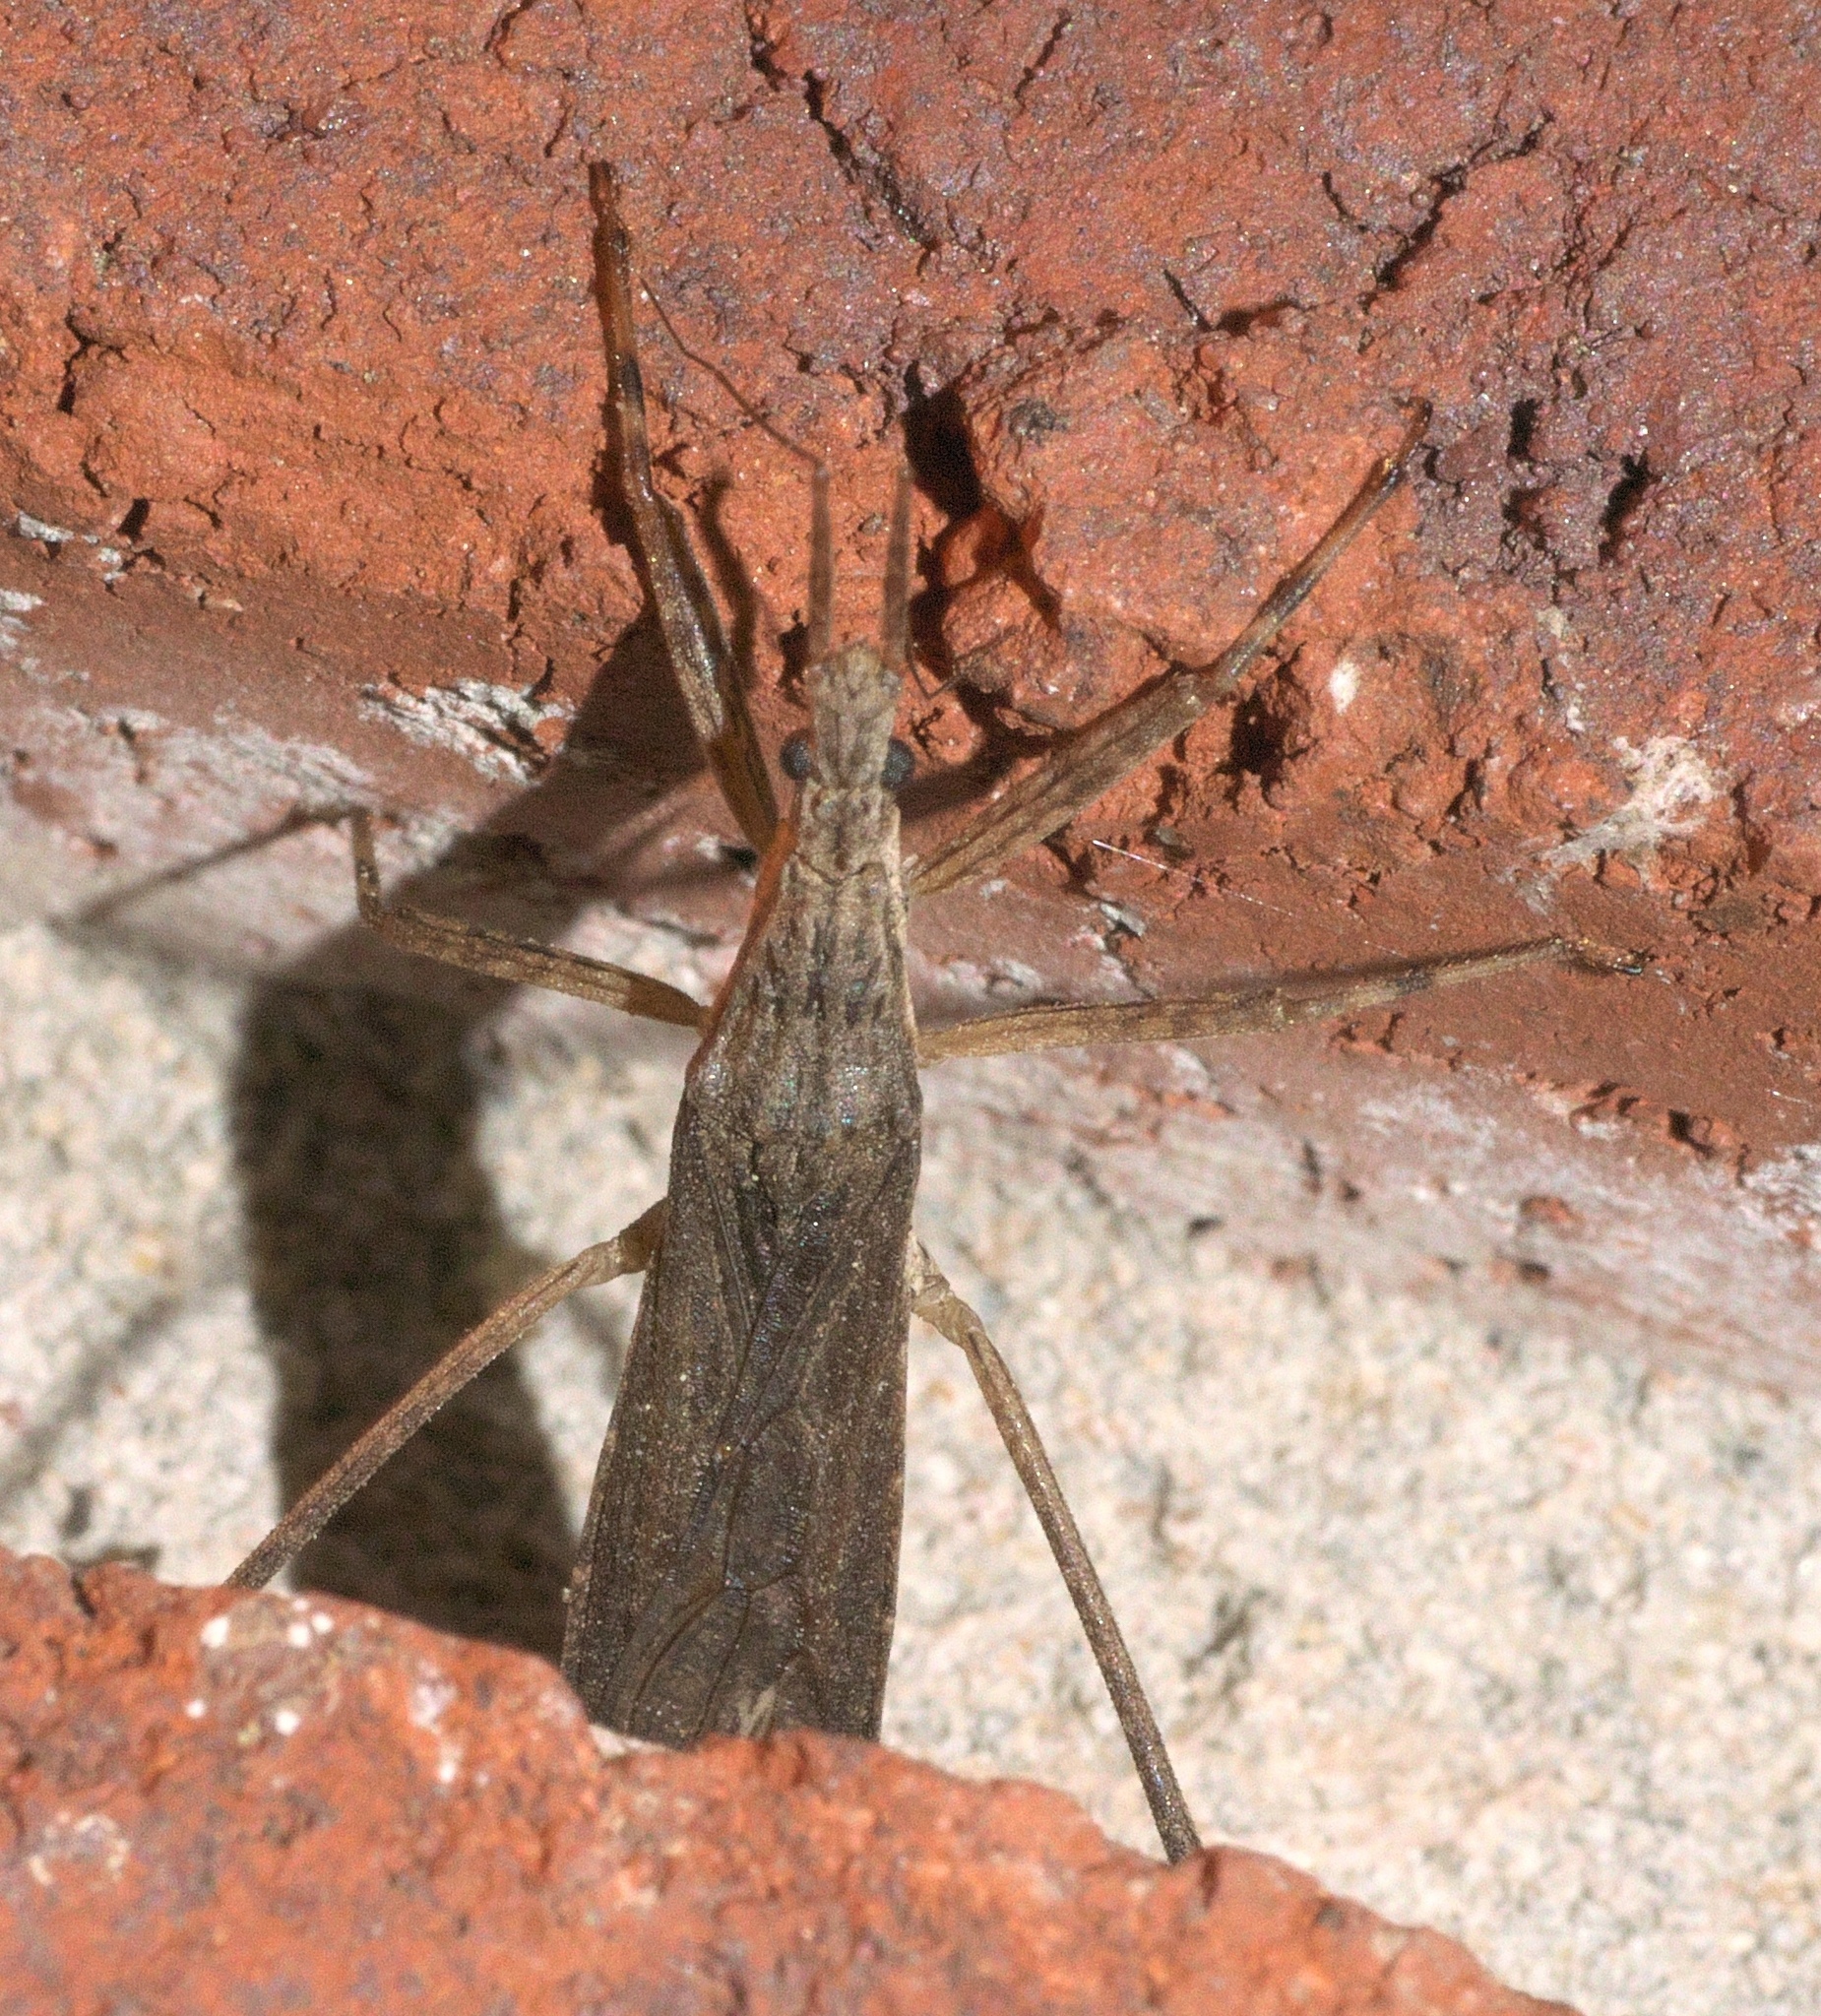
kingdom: Animalia
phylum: Arthropoda
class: Insecta
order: Hemiptera
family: Reduviidae
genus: Pygolampis
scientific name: Pygolampis pectoralis
